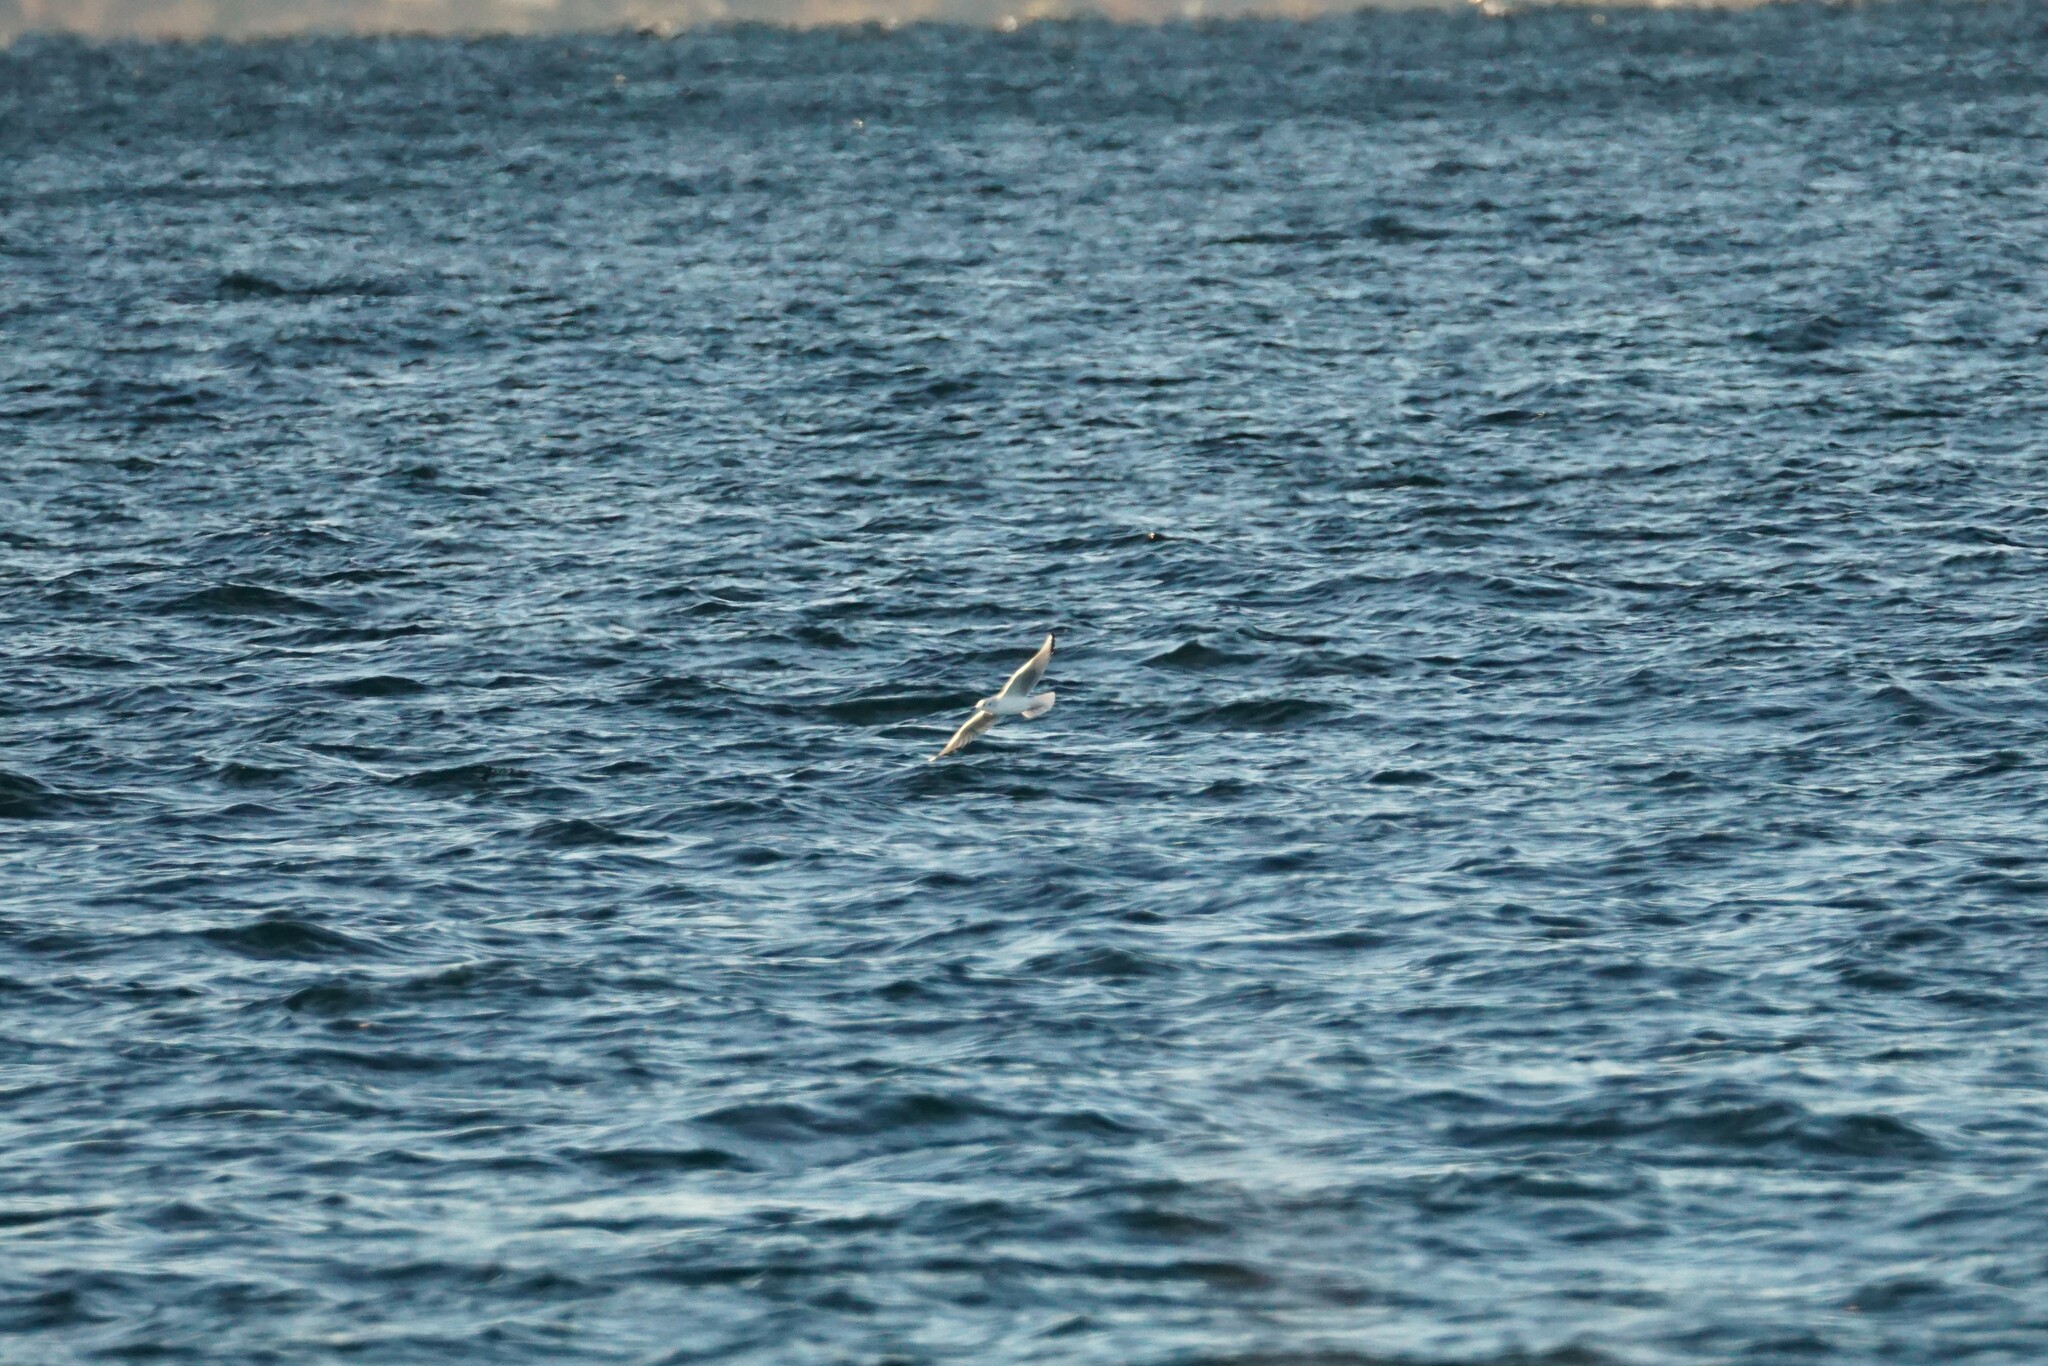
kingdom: Animalia
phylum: Chordata
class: Aves
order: Charadriiformes
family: Laridae
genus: Chroicocephalus
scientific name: Chroicocephalus philadelphia
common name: Bonaparte's gull
